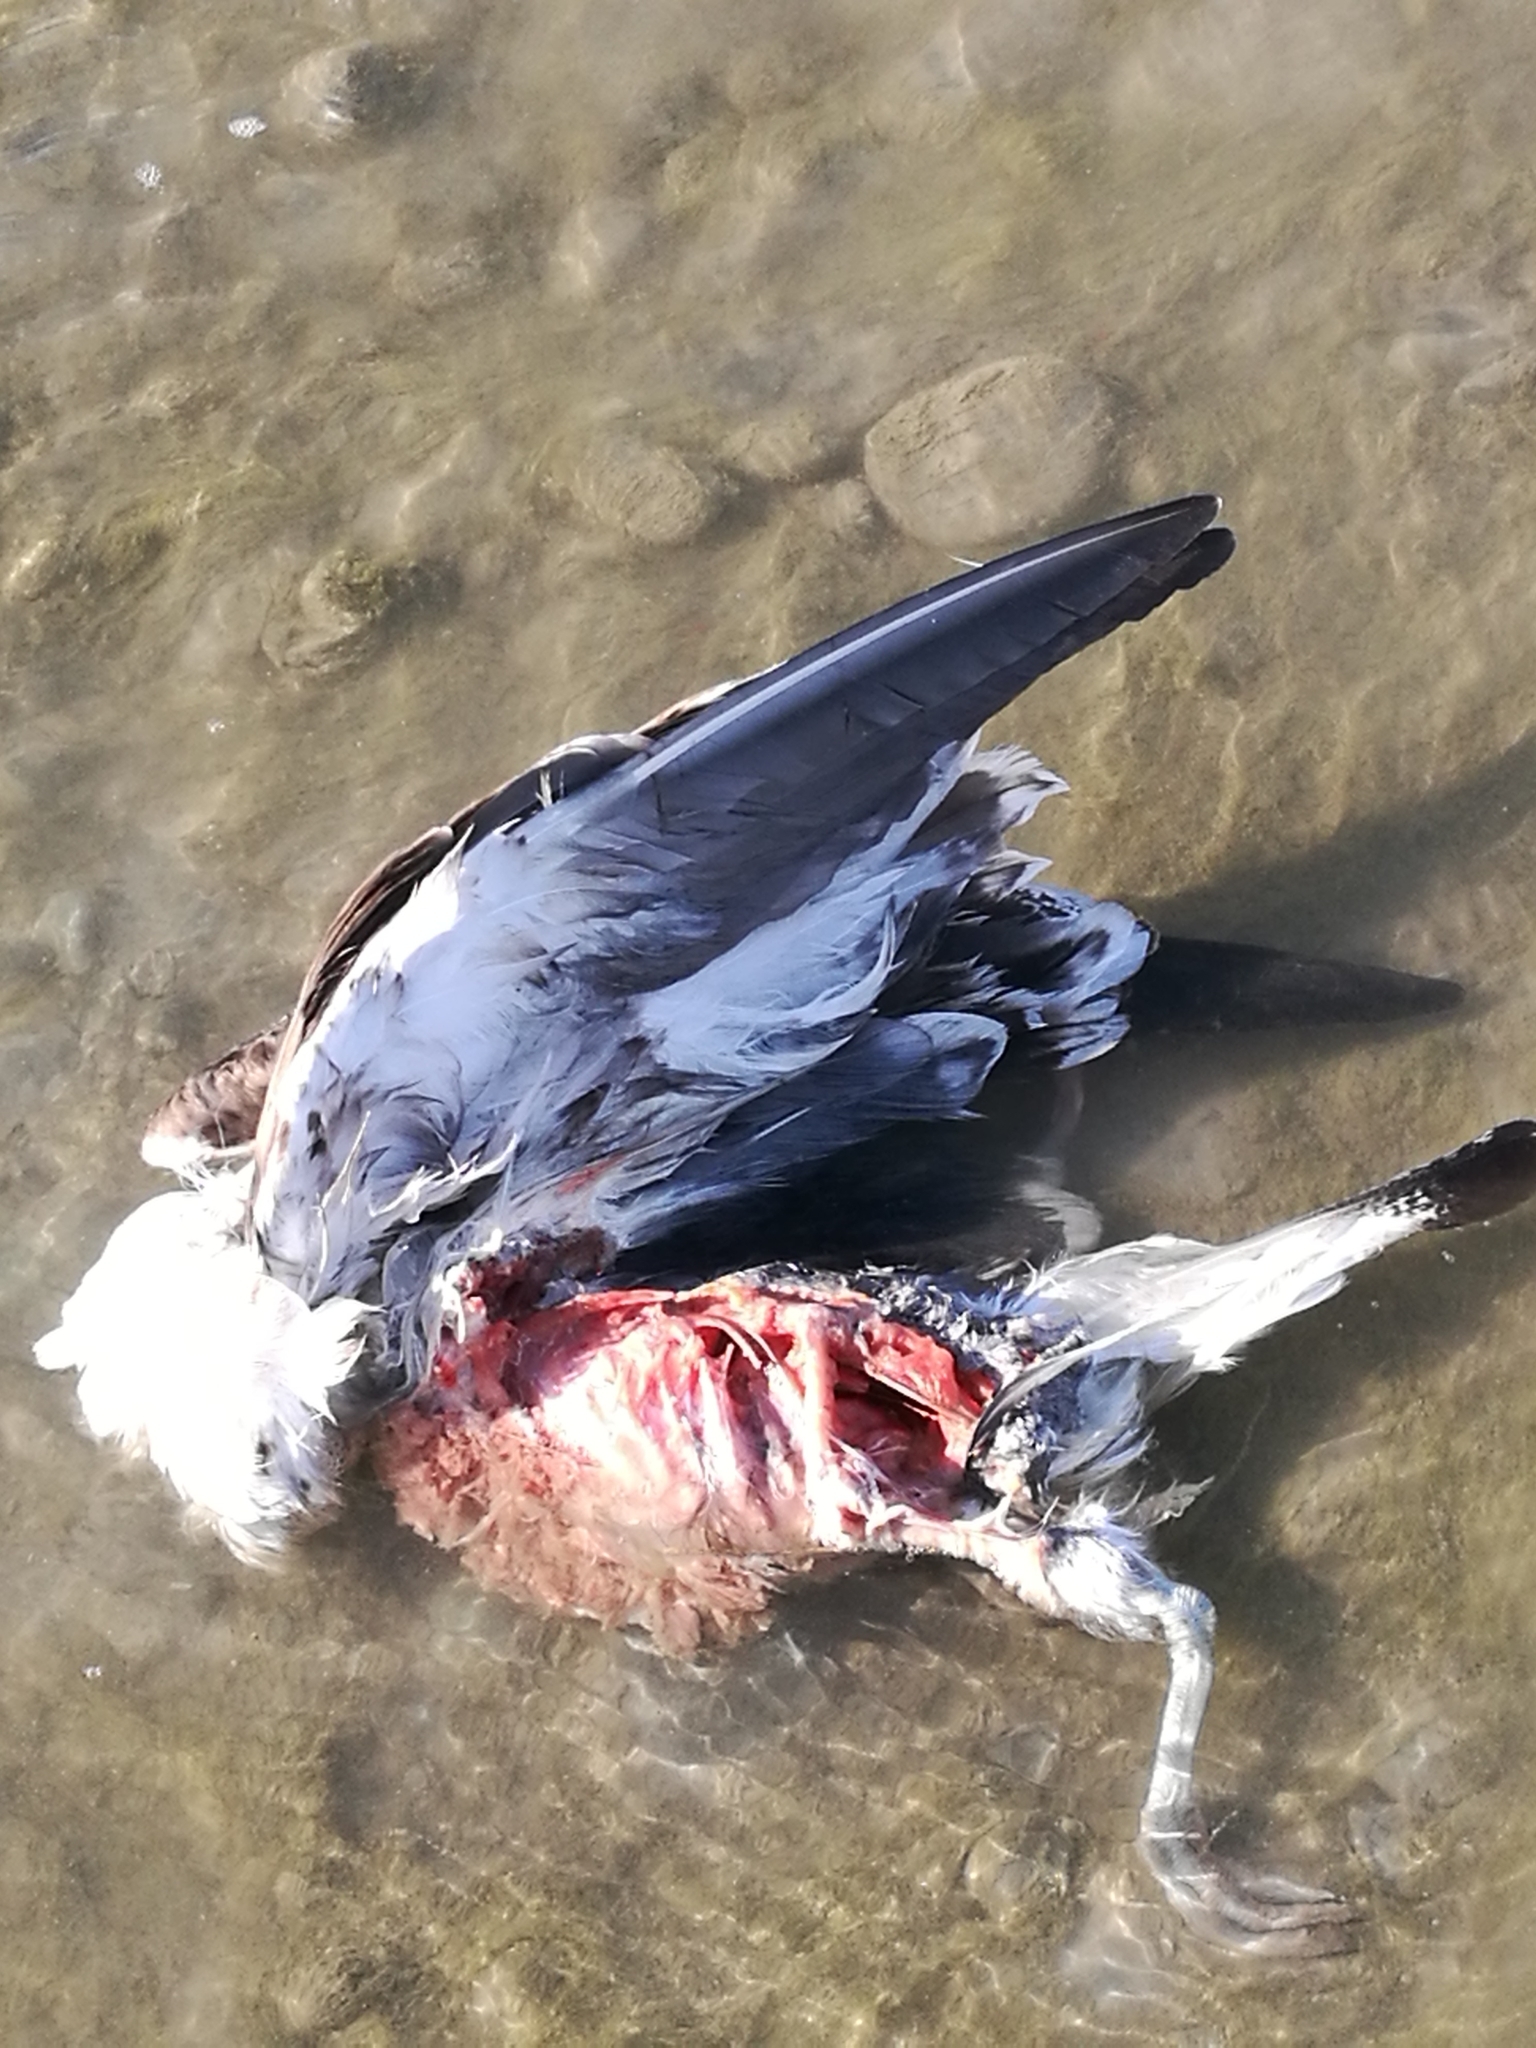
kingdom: Animalia
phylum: Chordata
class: Aves
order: Charadriiformes
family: Laridae
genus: Larus
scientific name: Larus dominicanus
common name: Kelp gull
